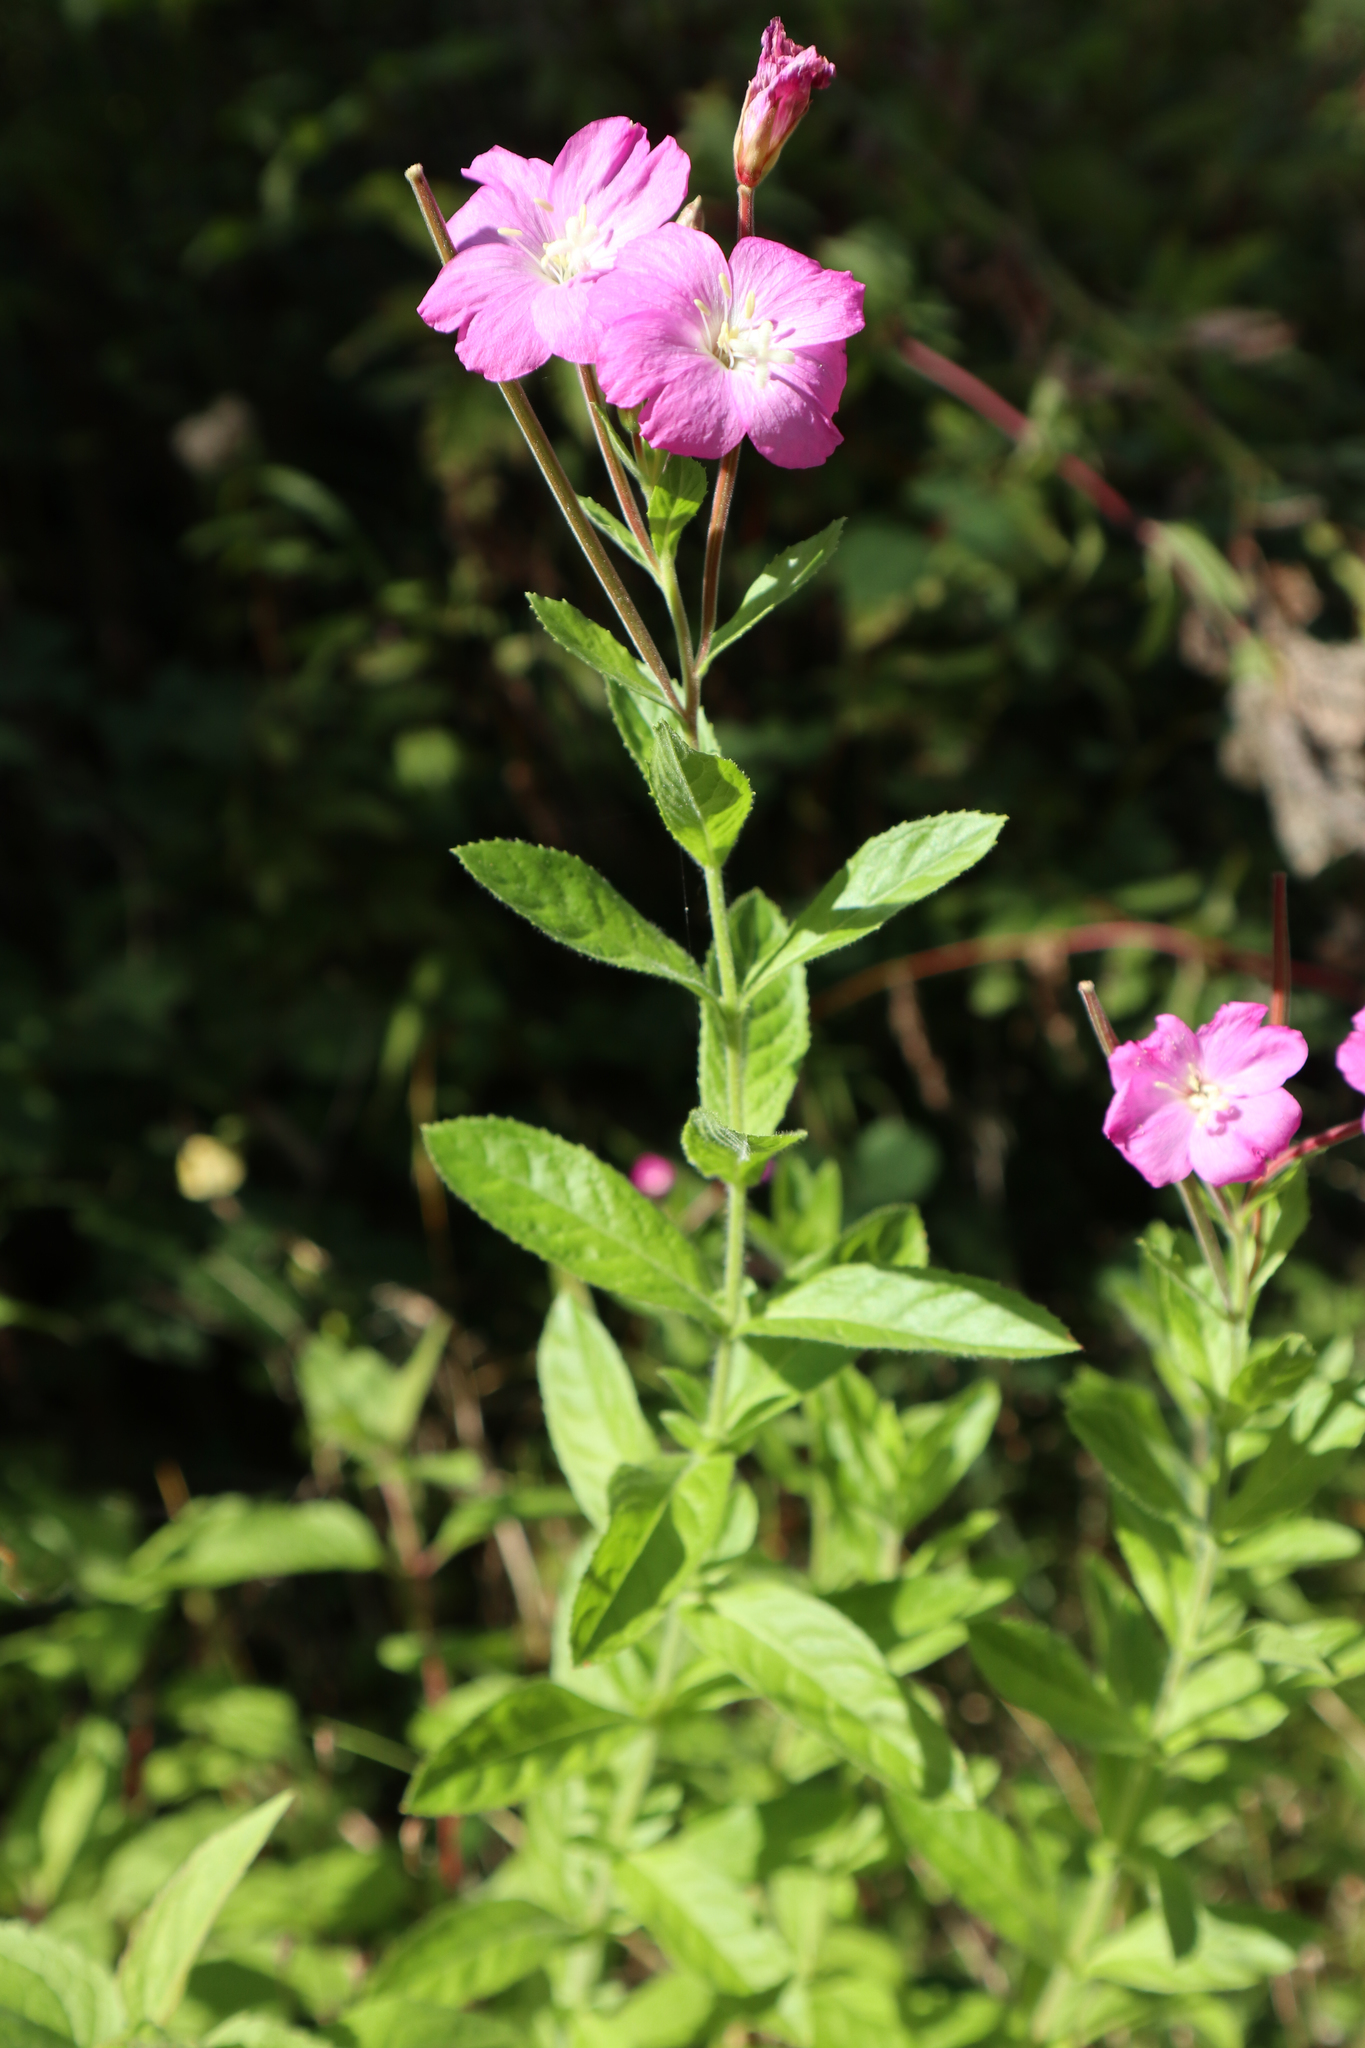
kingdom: Plantae
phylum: Tracheophyta
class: Magnoliopsida
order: Myrtales
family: Onagraceae
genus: Epilobium
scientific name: Epilobium hirsutum
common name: Great willowherb
